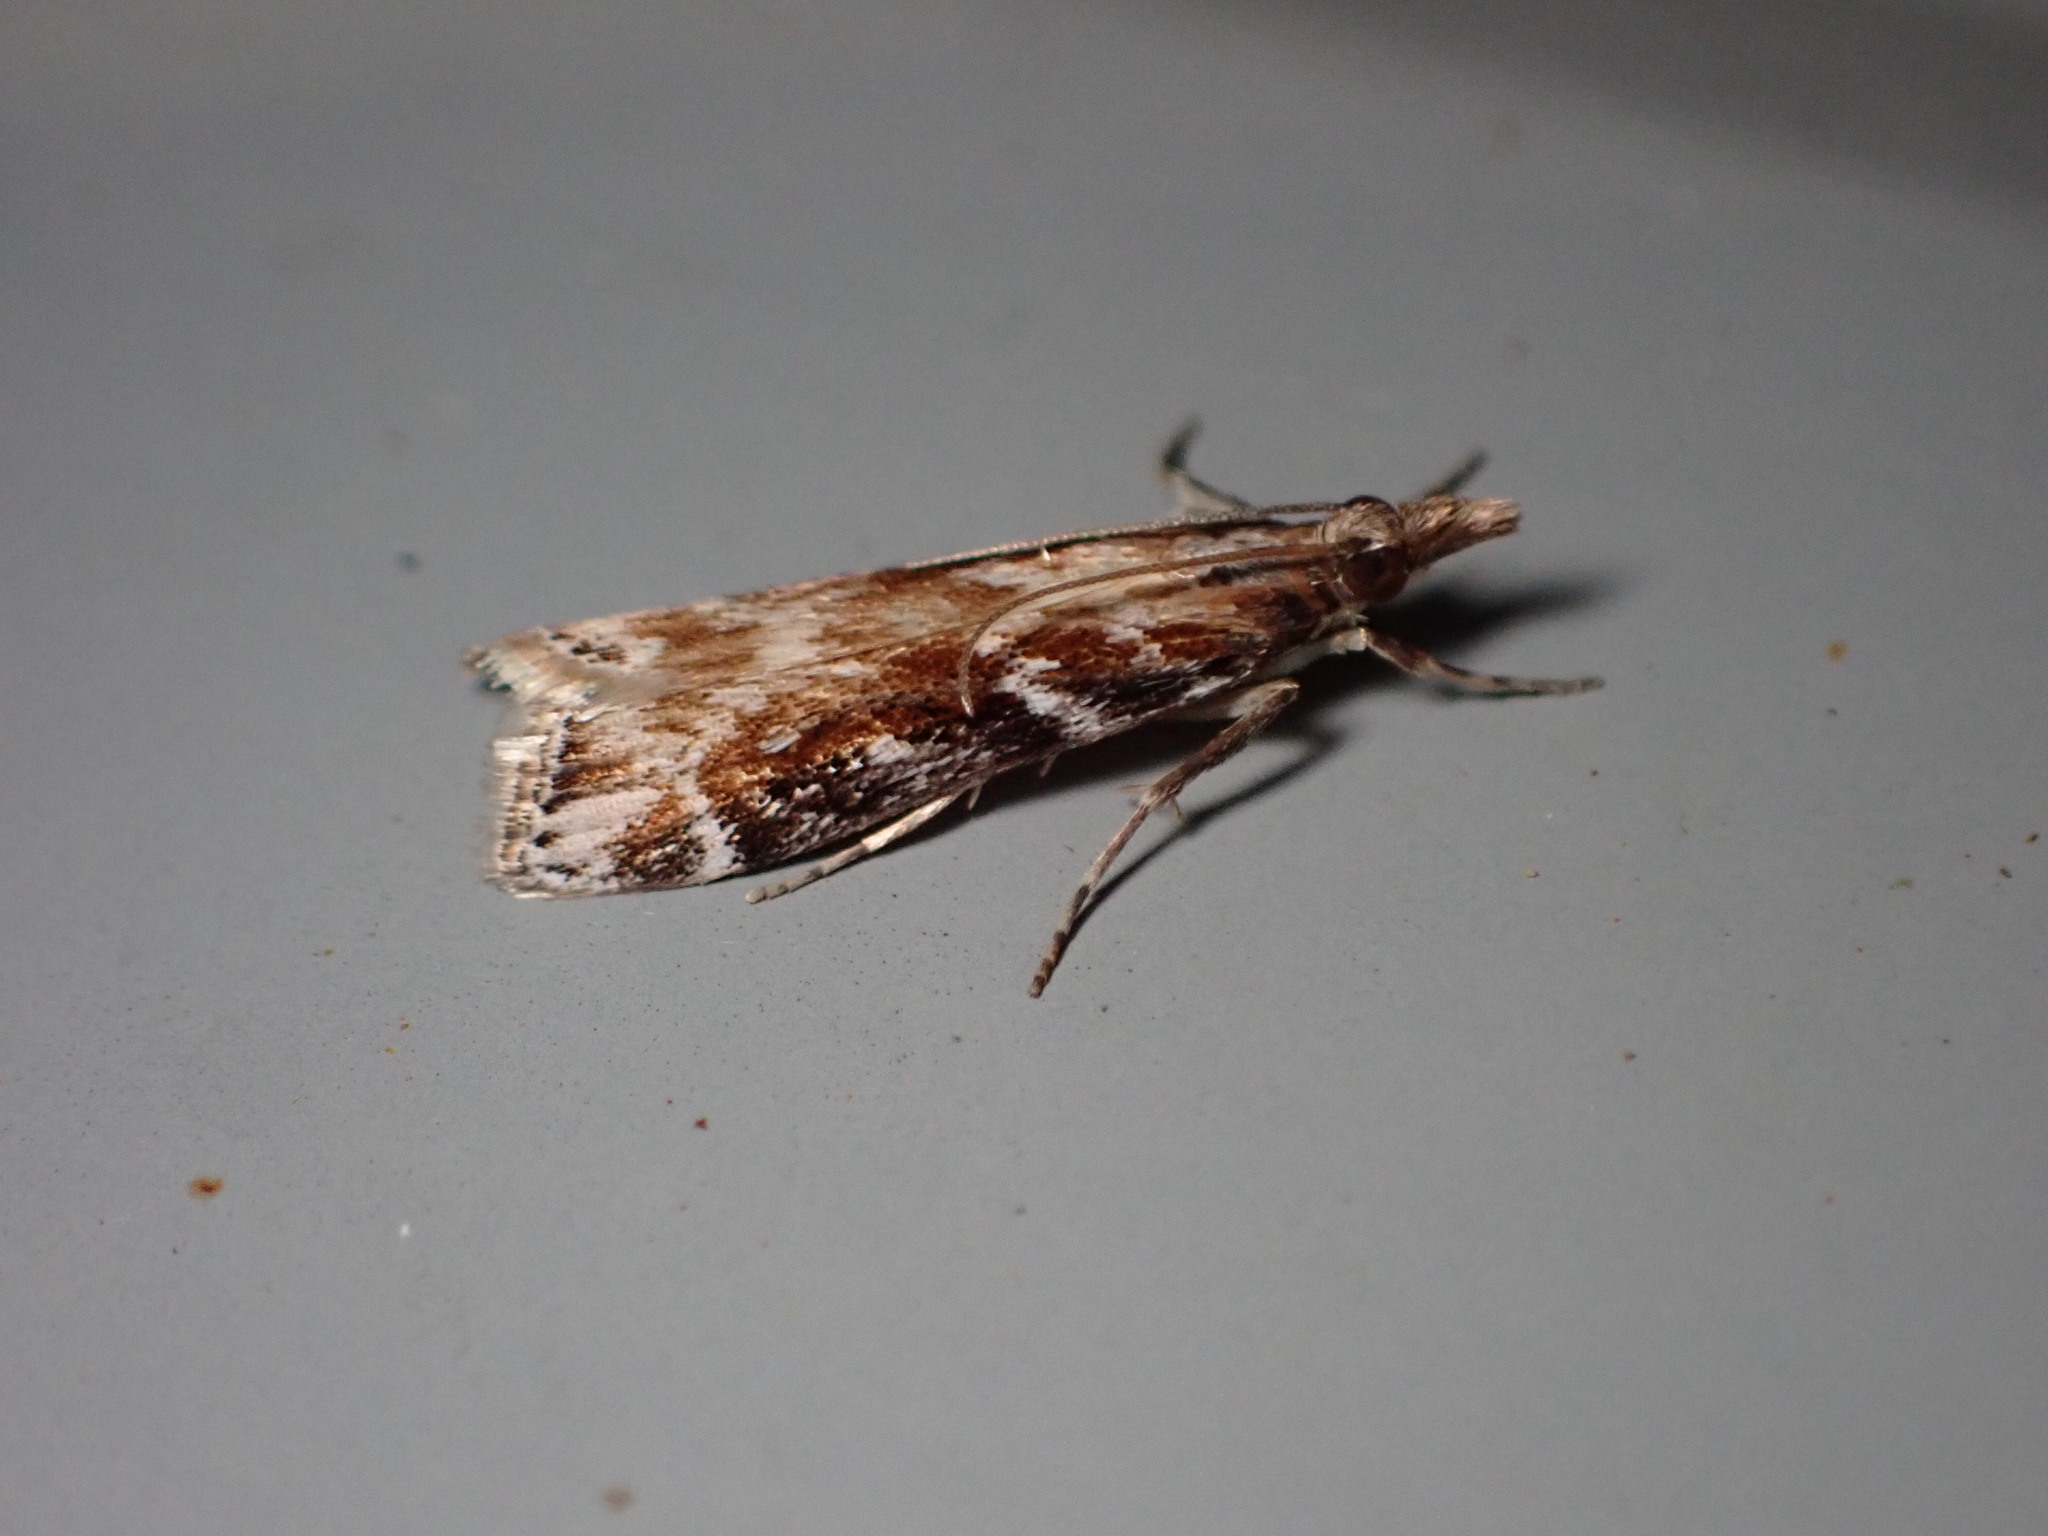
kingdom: Animalia
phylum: Arthropoda
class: Insecta
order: Lepidoptera
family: Crambidae
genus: Scoparia
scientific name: Scoparia molifera
